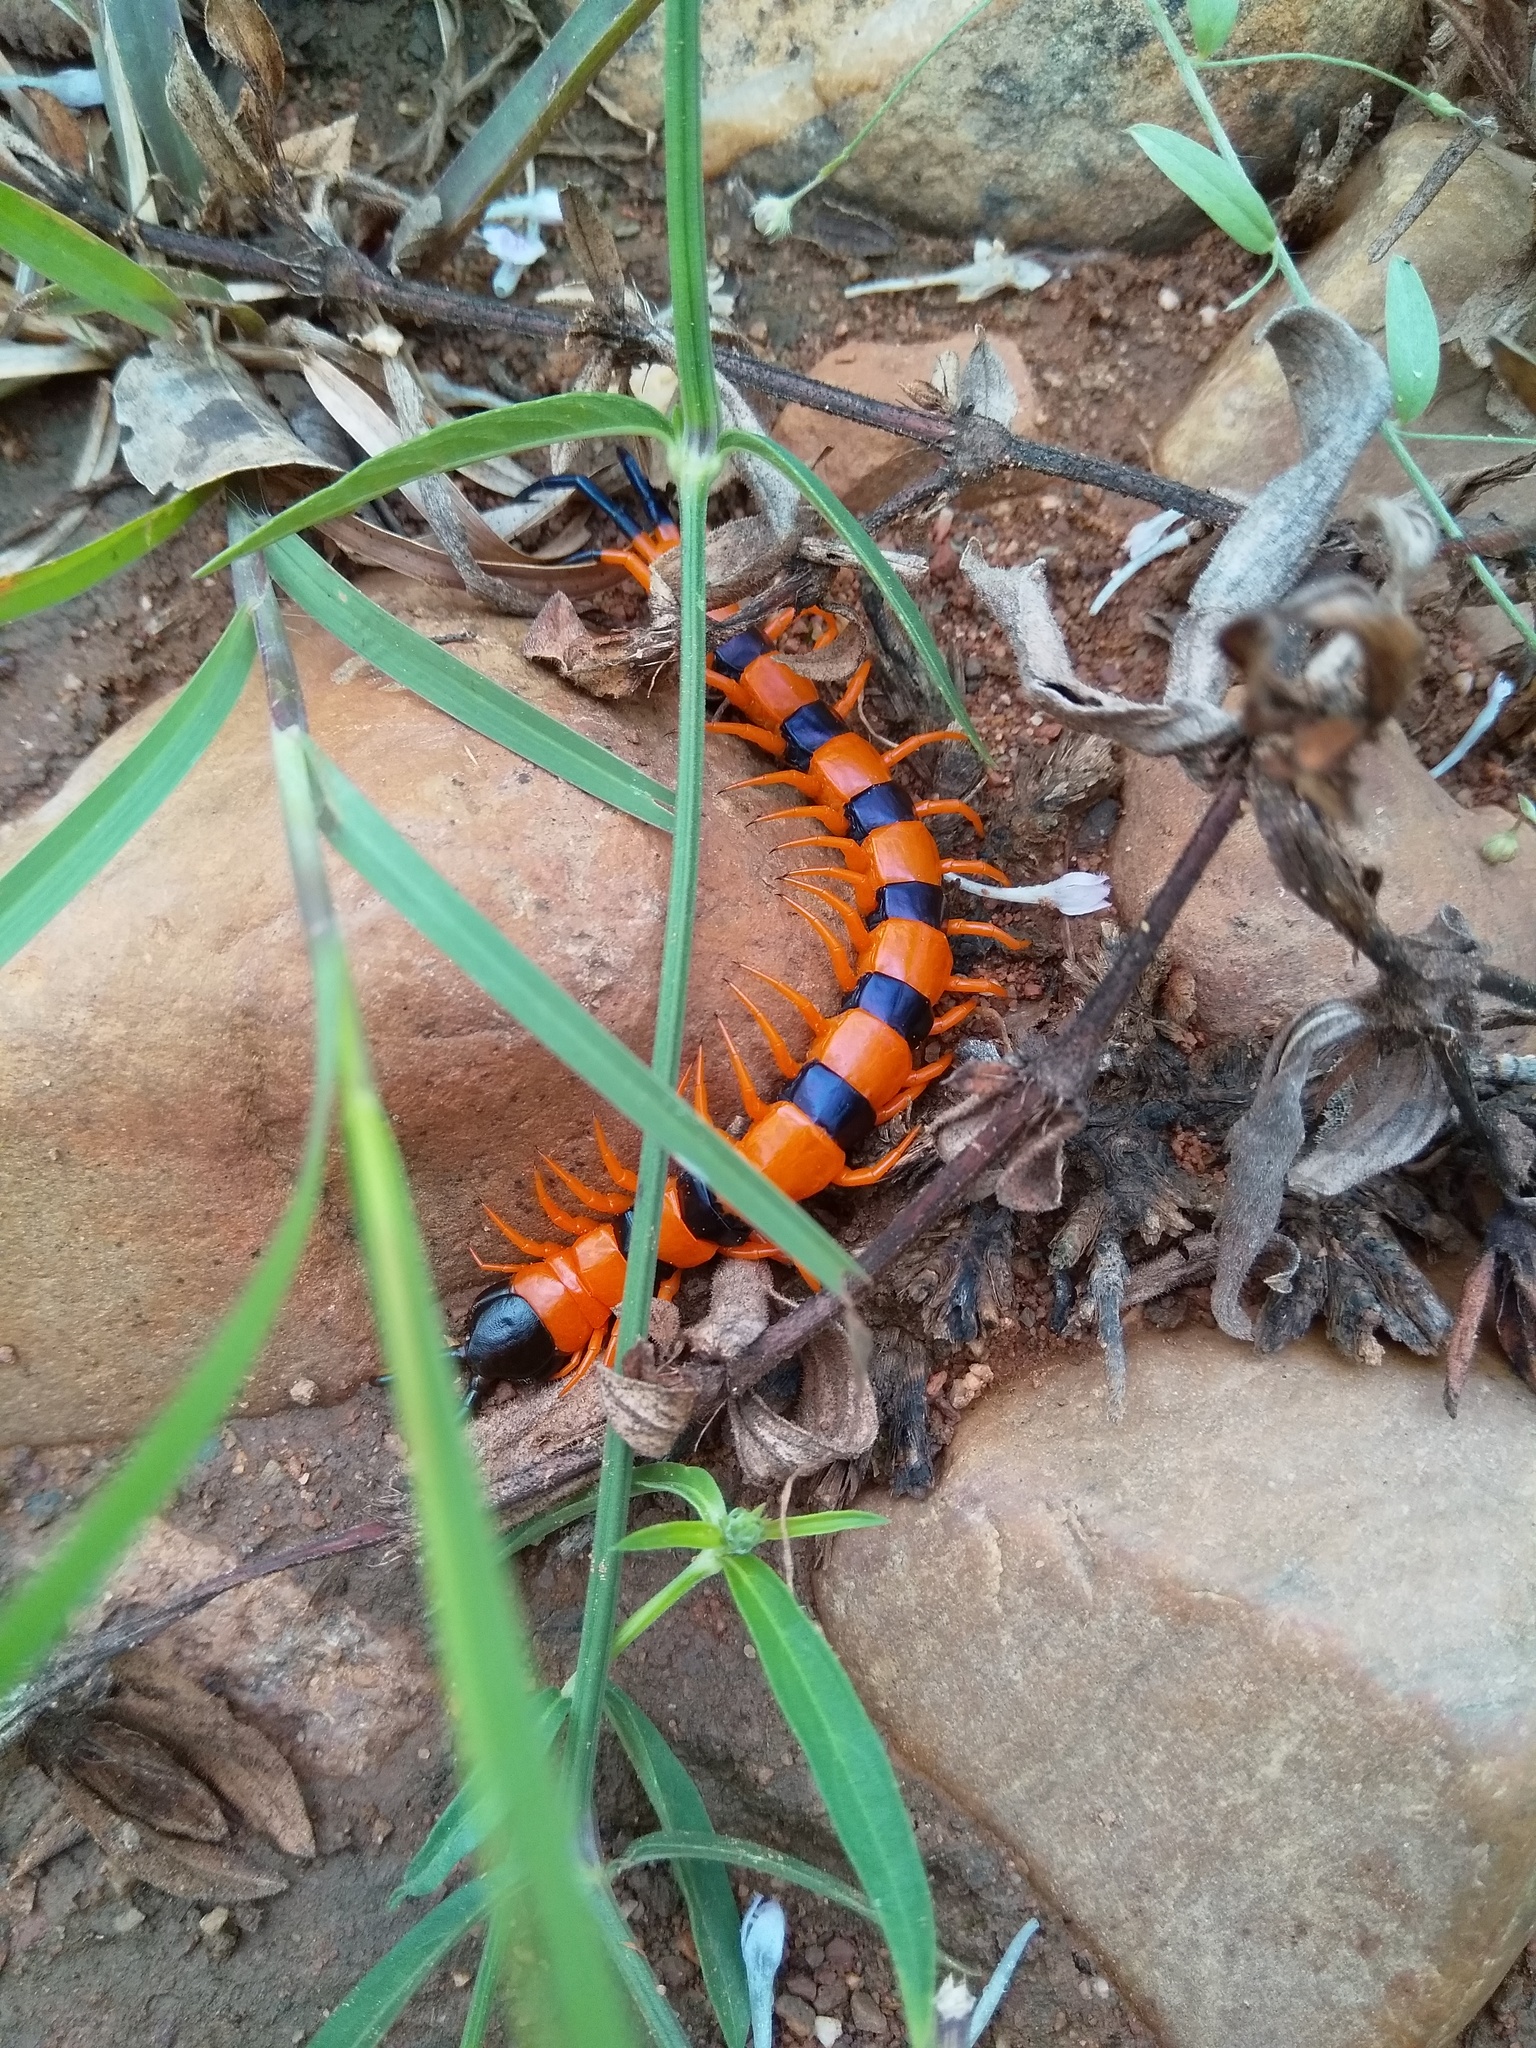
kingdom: Animalia
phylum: Arthropoda
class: Chilopoda
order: Scolopendromorpha
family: Scolopendridae
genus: Scolopendra
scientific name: Scolopendra hardwickei
